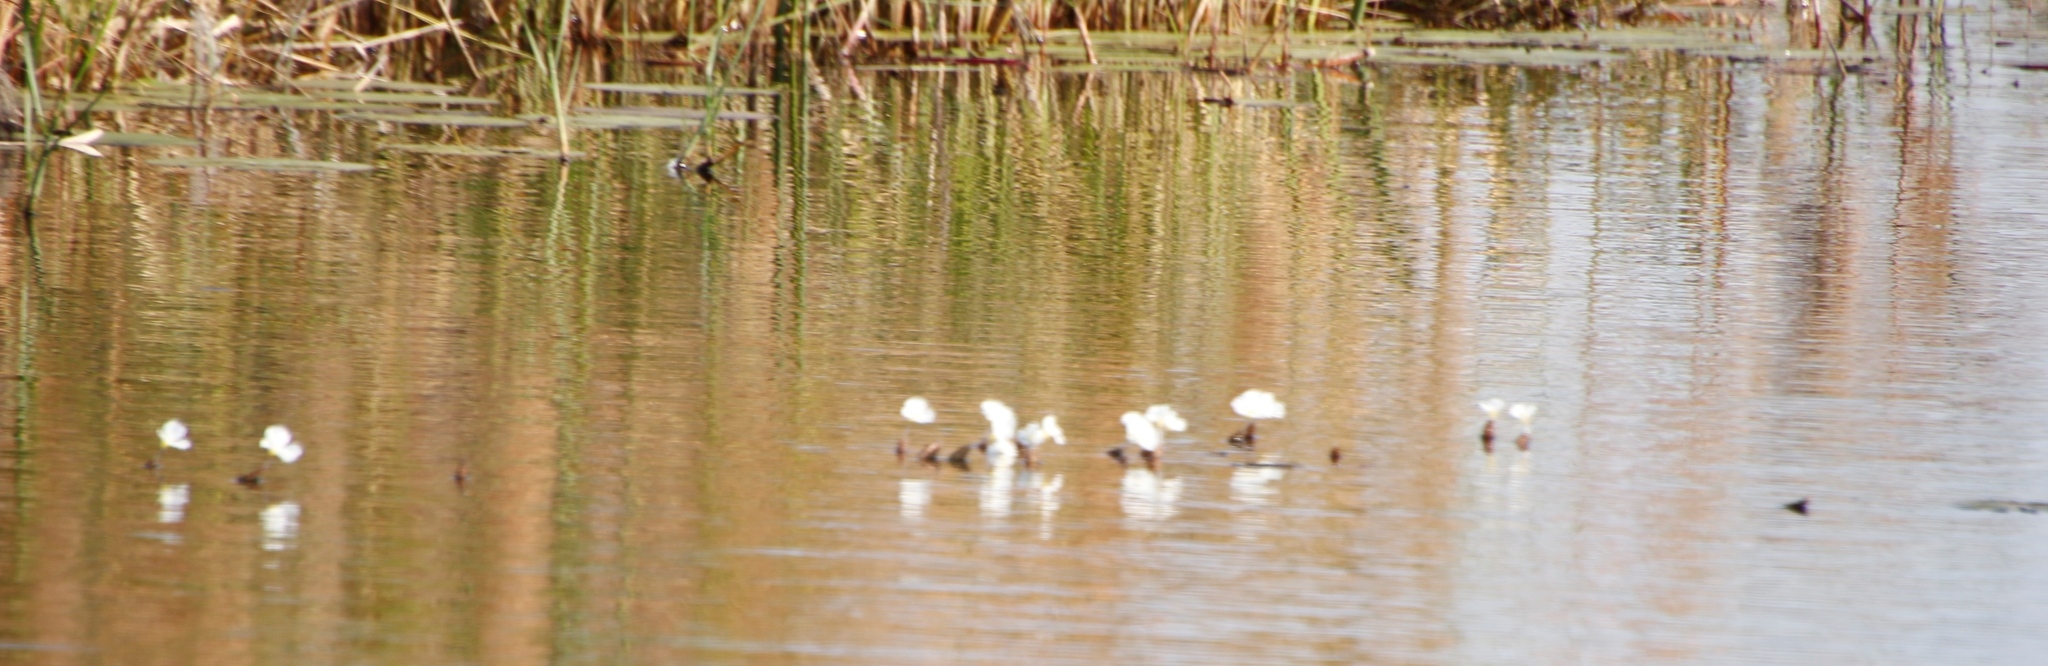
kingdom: Plantae
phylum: Tracheophyta
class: Liliopsida
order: Alismatales
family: Hydrocharitaceae
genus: Ottelia
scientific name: Ottelia muricata
